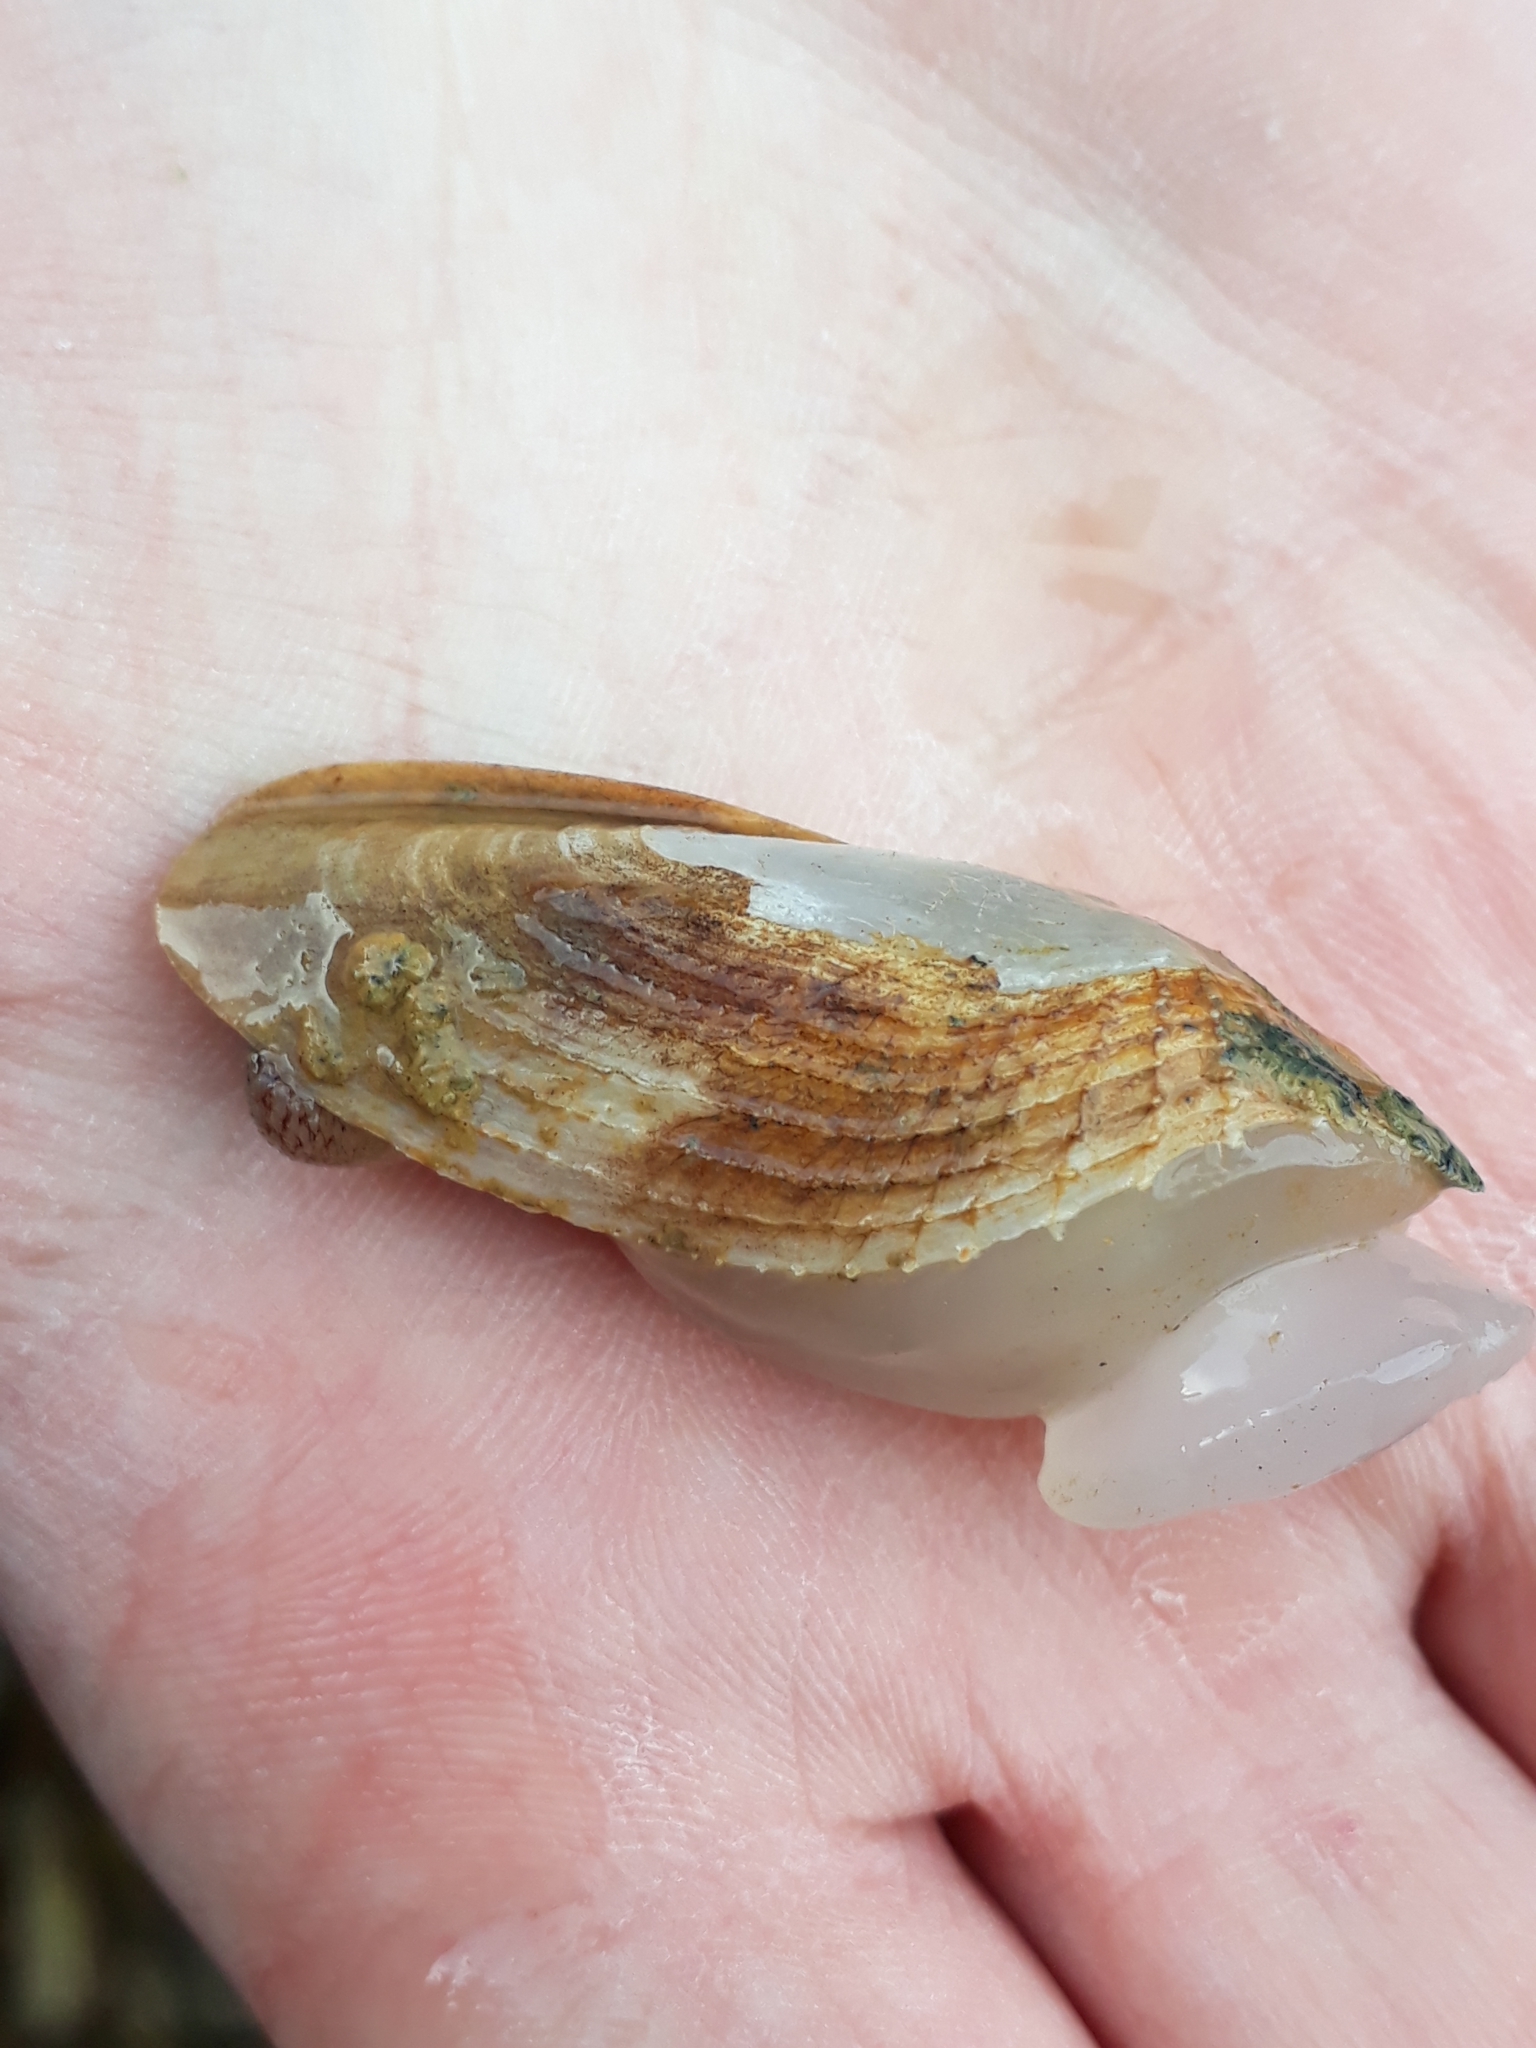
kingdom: Animalia
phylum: Mollusca
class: Bivalvia
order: Myida
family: Pholadidae
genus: Barnea
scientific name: Barnea similis
